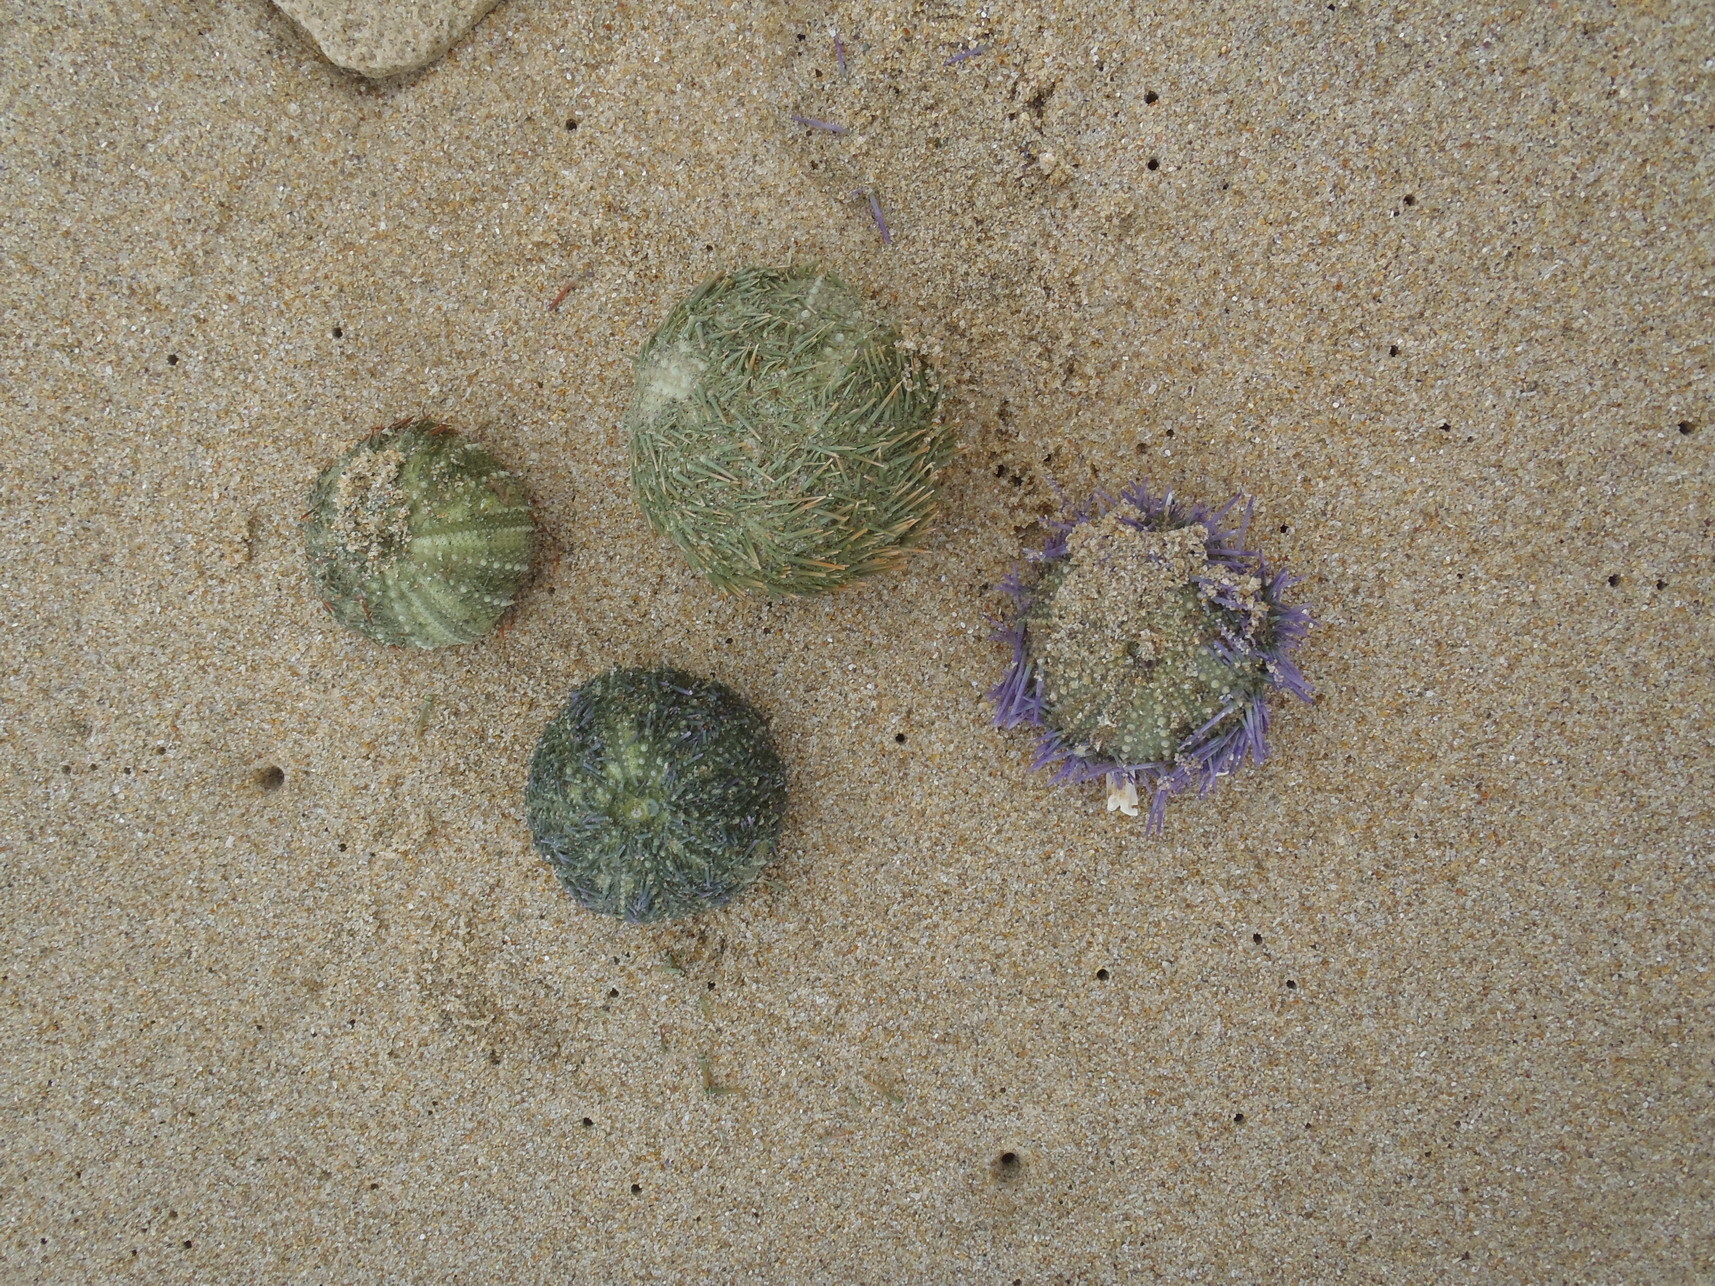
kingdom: Animalia
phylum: Echinodermata
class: Echinoidea
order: Camarodonta
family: Parechinidae
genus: Parechinus
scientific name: Parechinus angulosus
